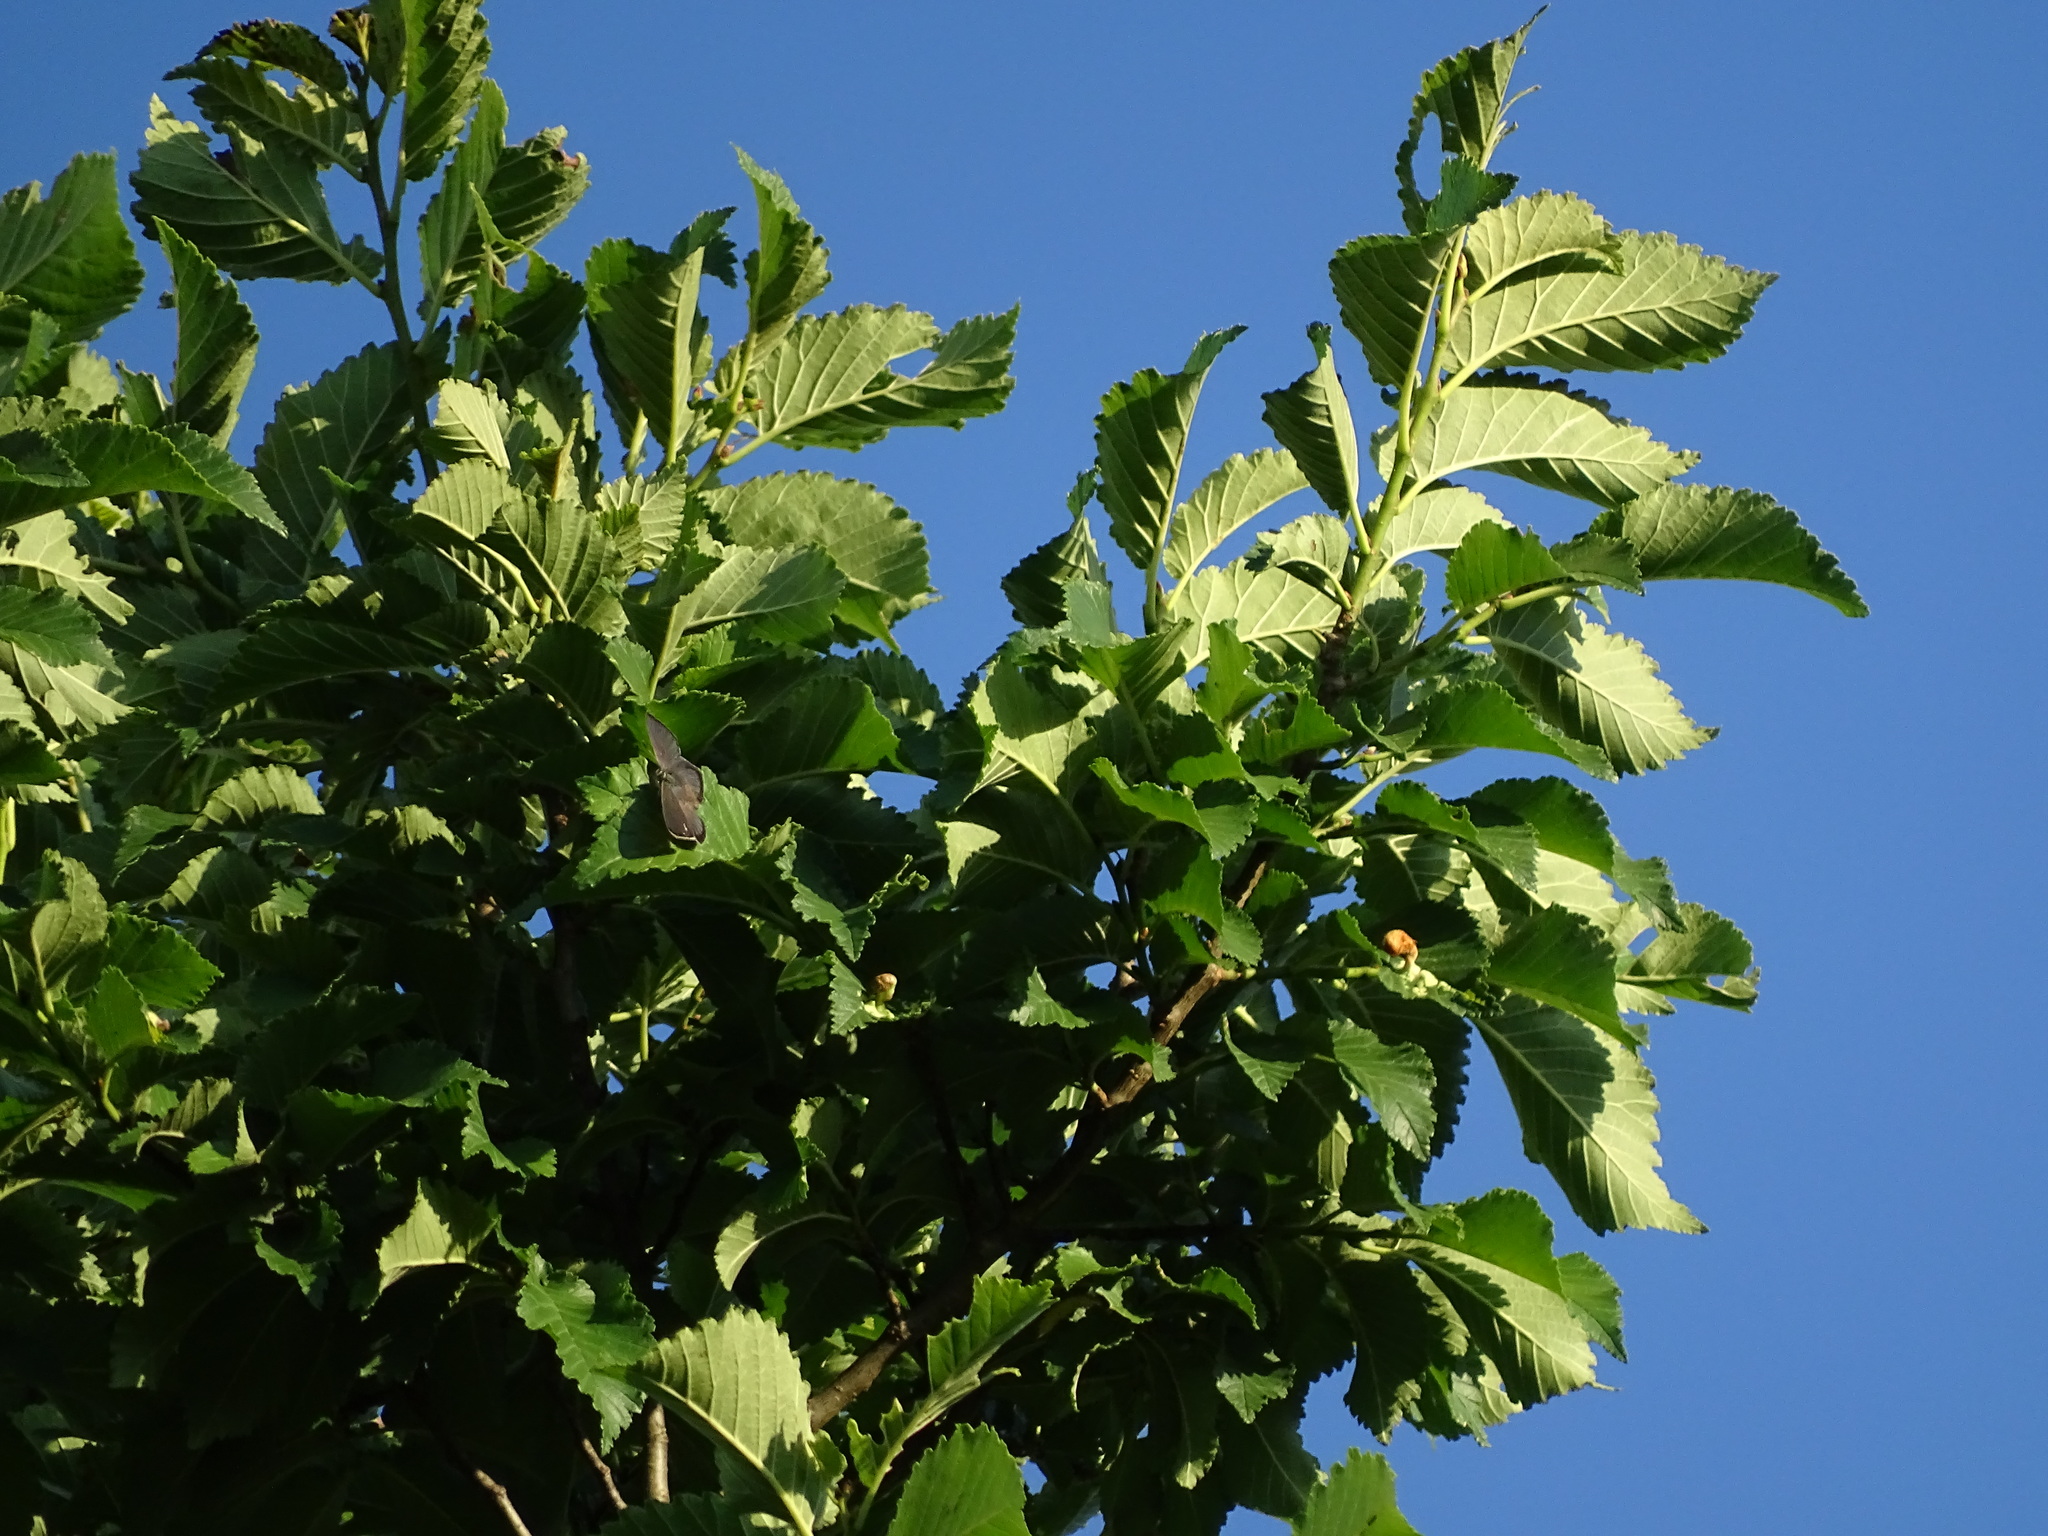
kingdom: Animalia
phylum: Arthropoda
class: Insecta
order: Lepidoptera
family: Lycaenidae
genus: Quercusia
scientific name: Quercusia quercus
